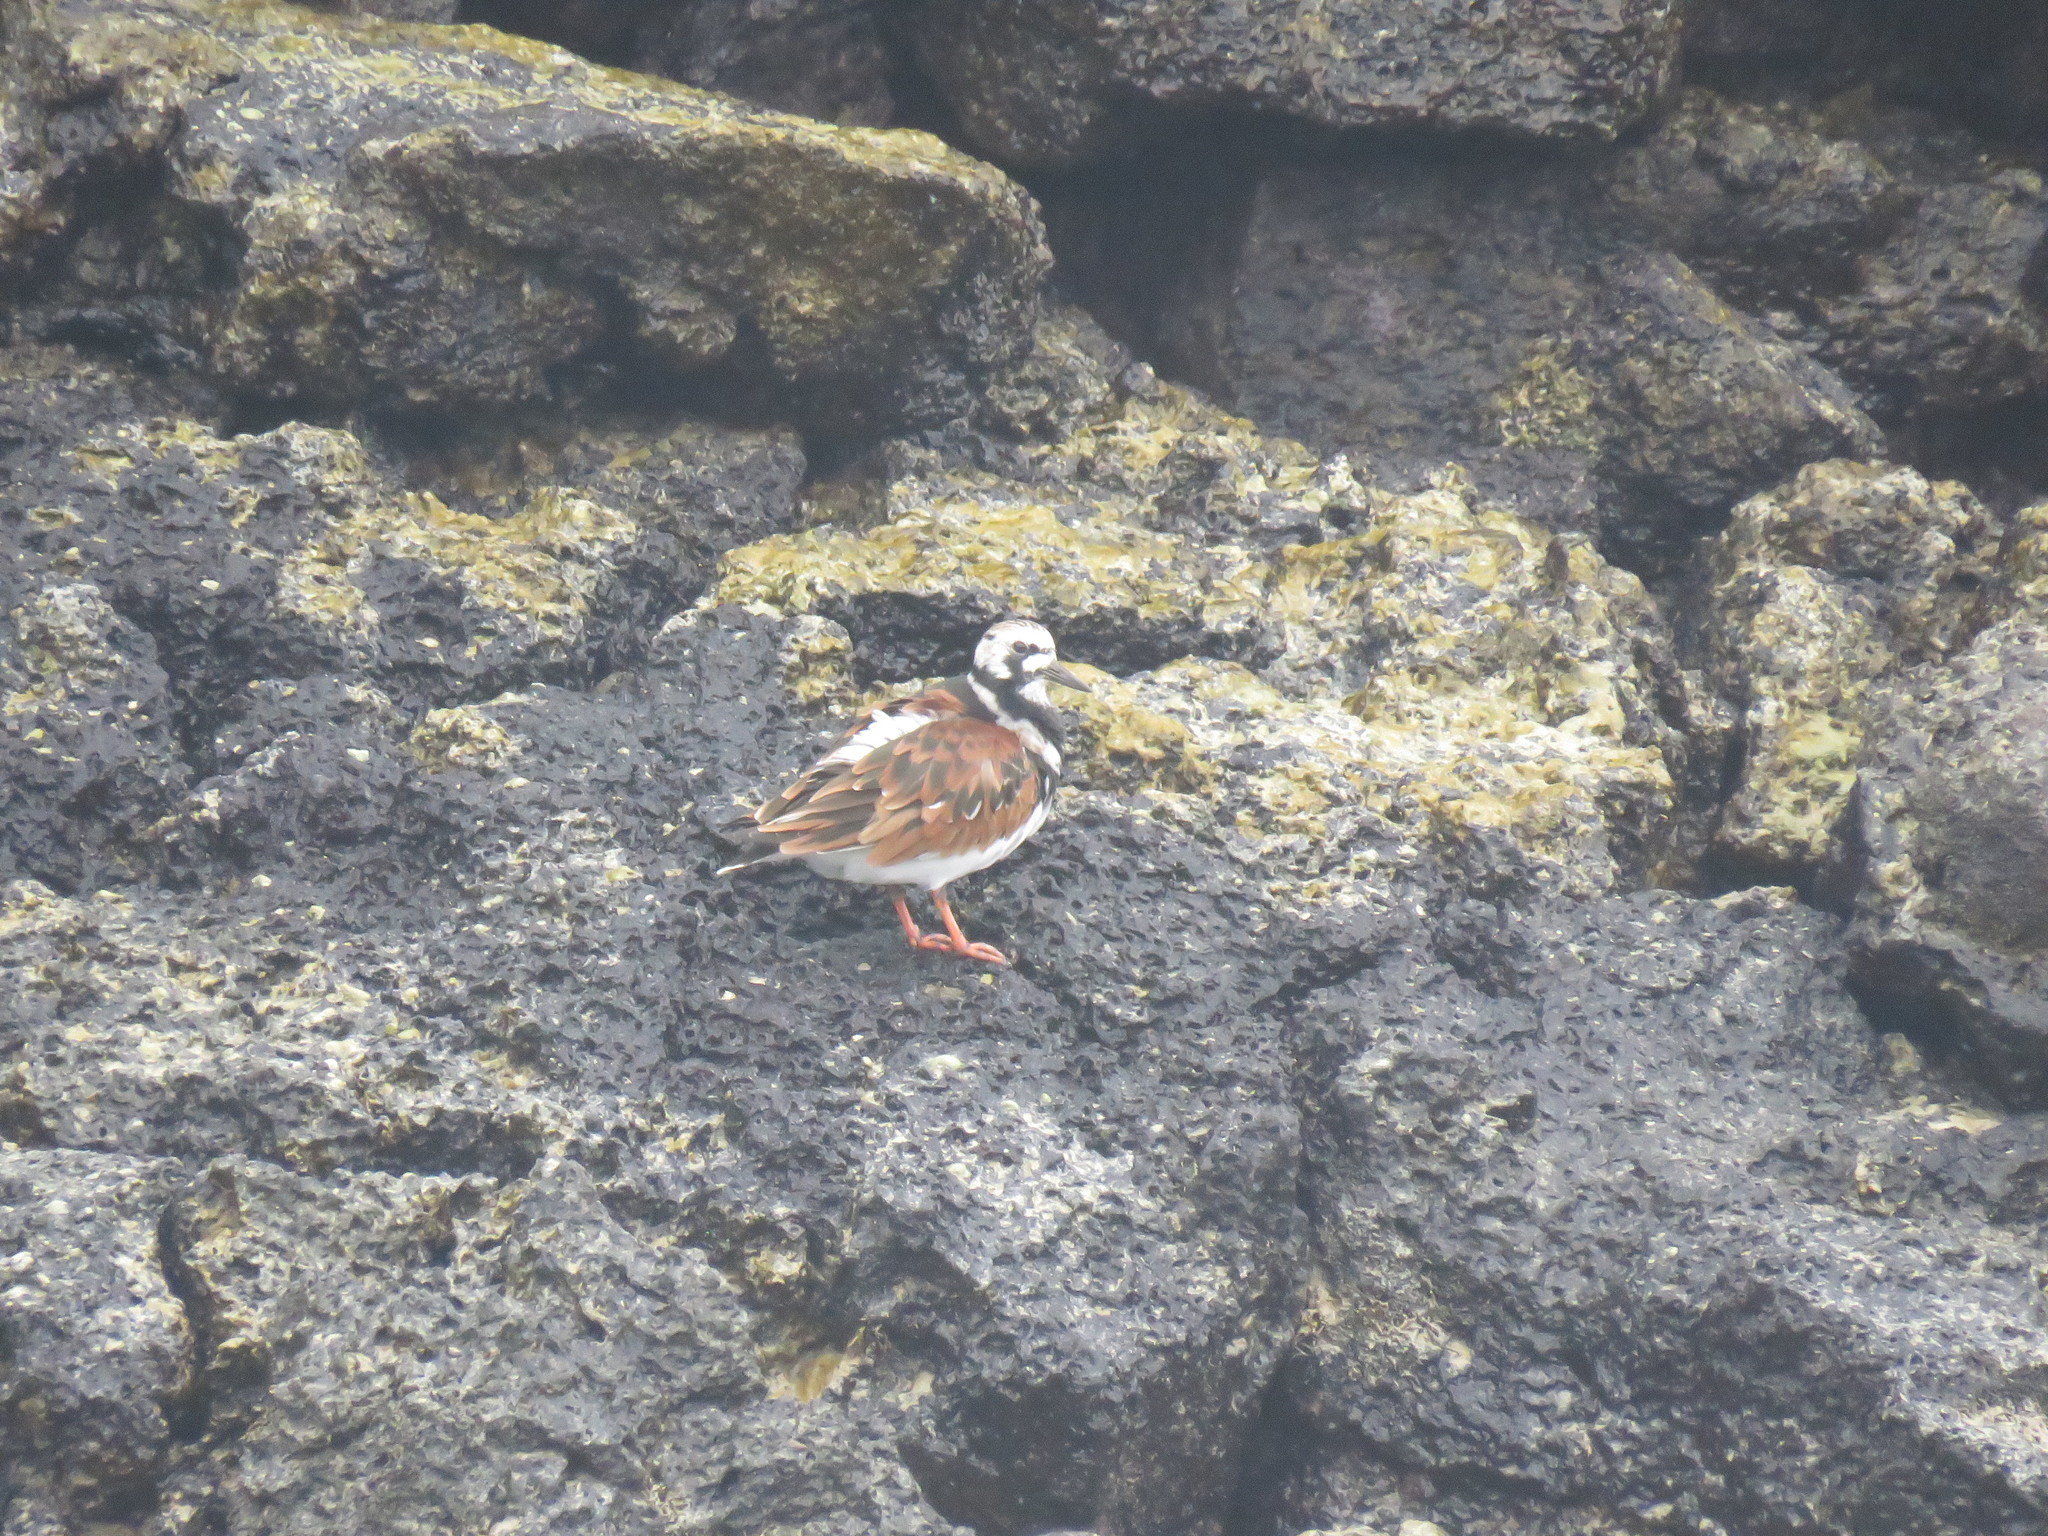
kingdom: Animalia
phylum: Chordata
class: Aves
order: Charadriiformes
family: Scolopacidae
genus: Arenaria
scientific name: Arenaria interpres
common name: Ruddy turnstone
